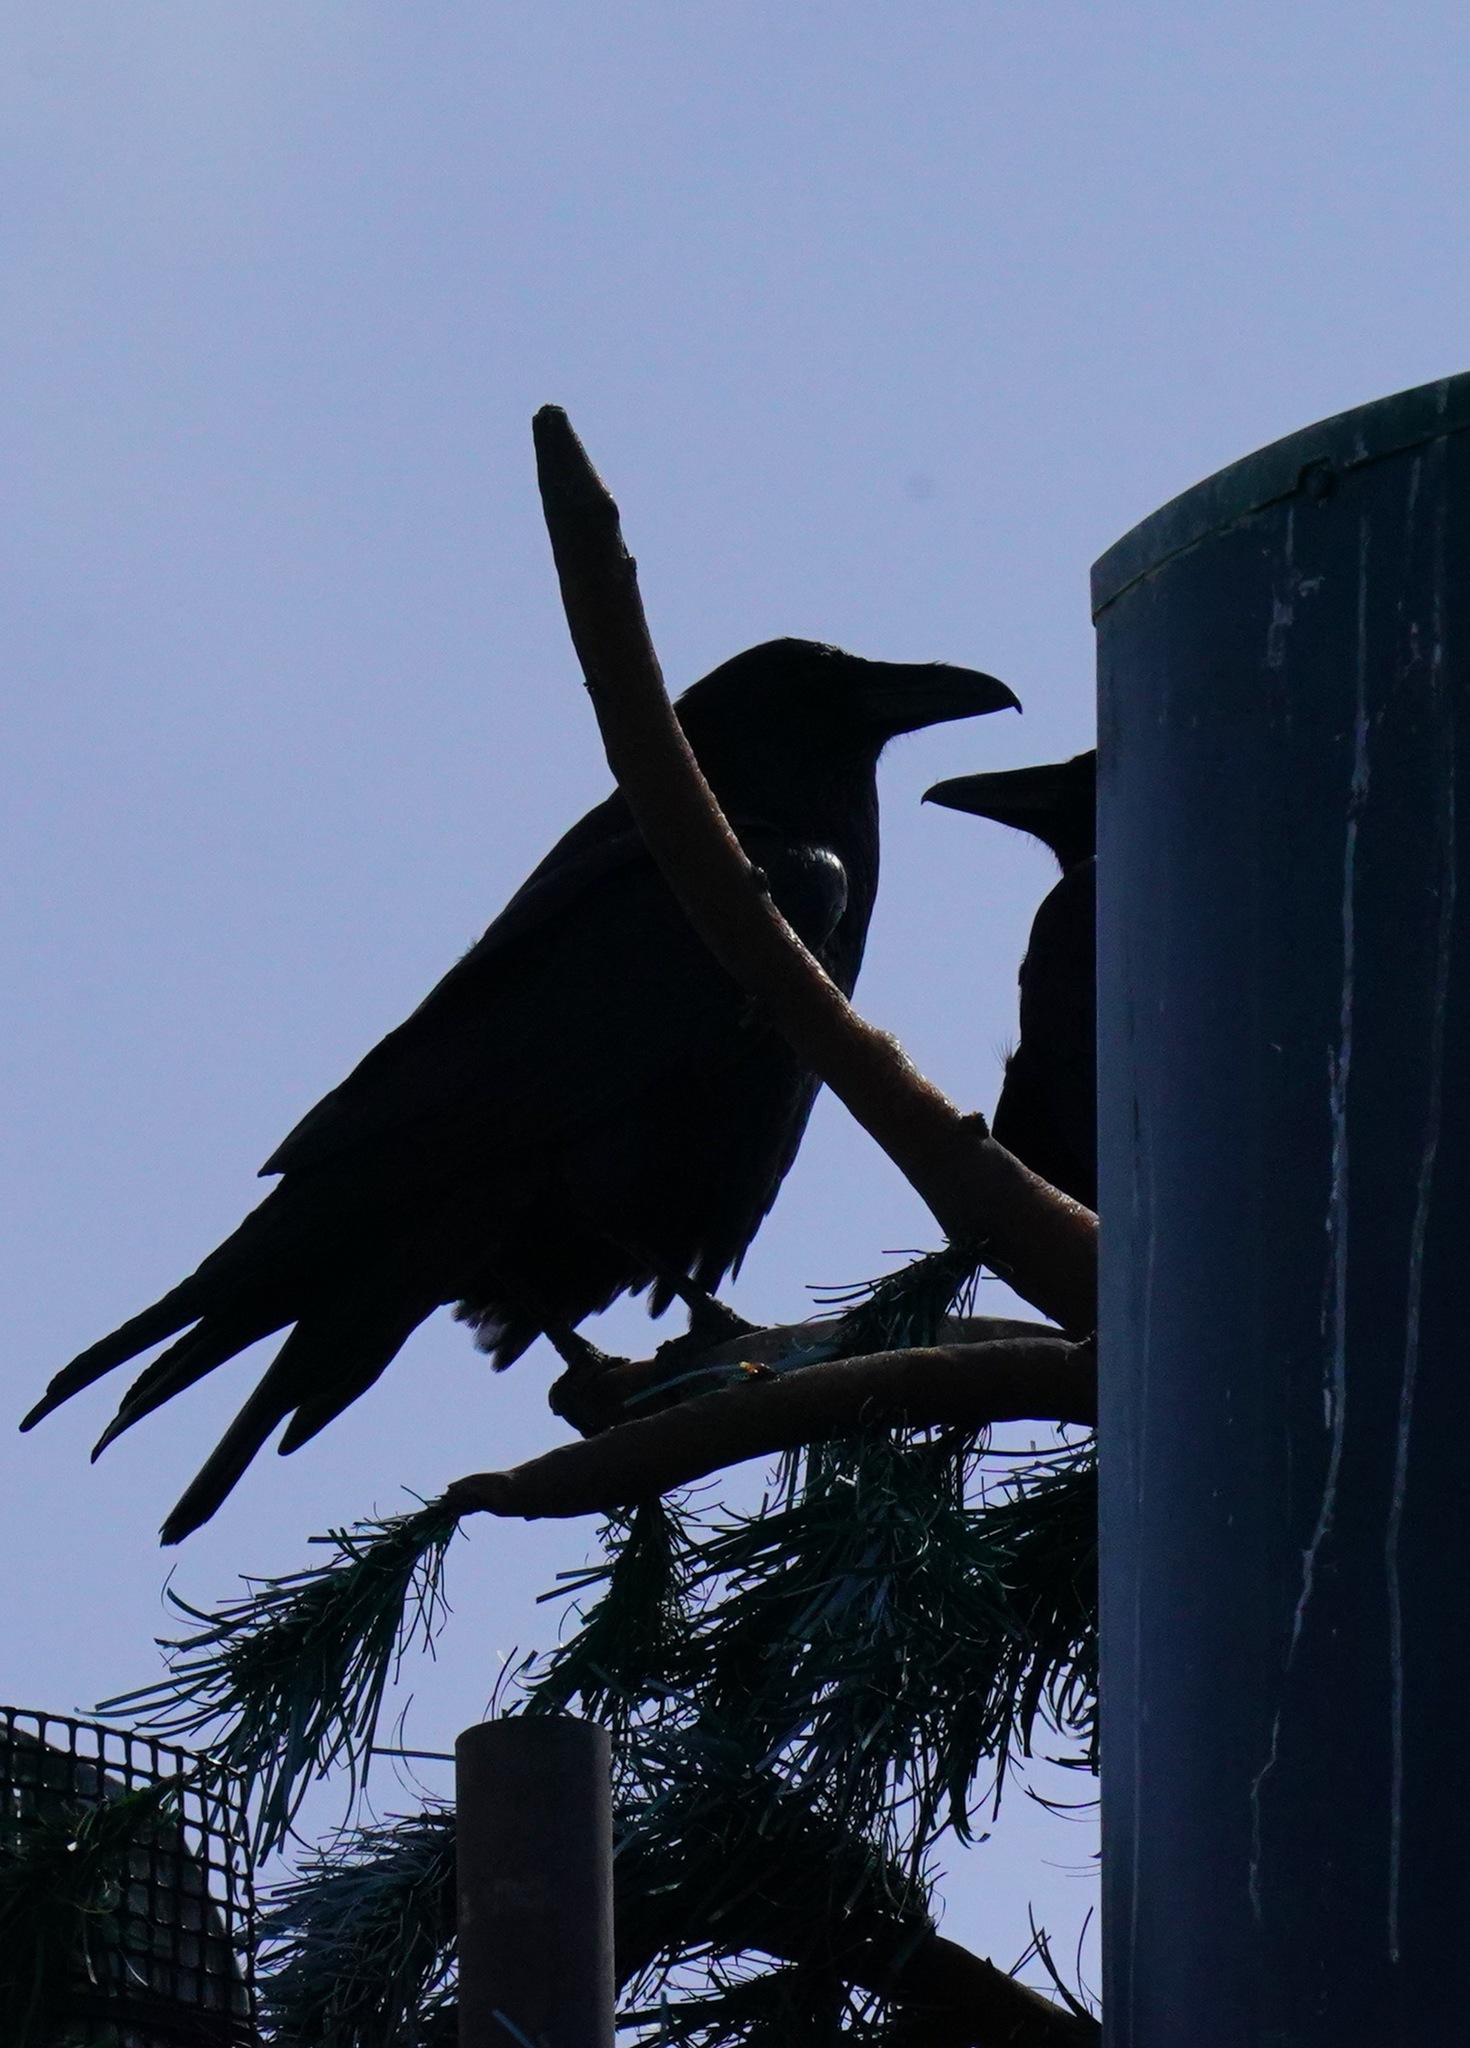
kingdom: Animalia
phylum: Chordata
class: Aves
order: Passeriformes
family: Corvidae
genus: Corvus
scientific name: Corvus corax
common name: Common raven
